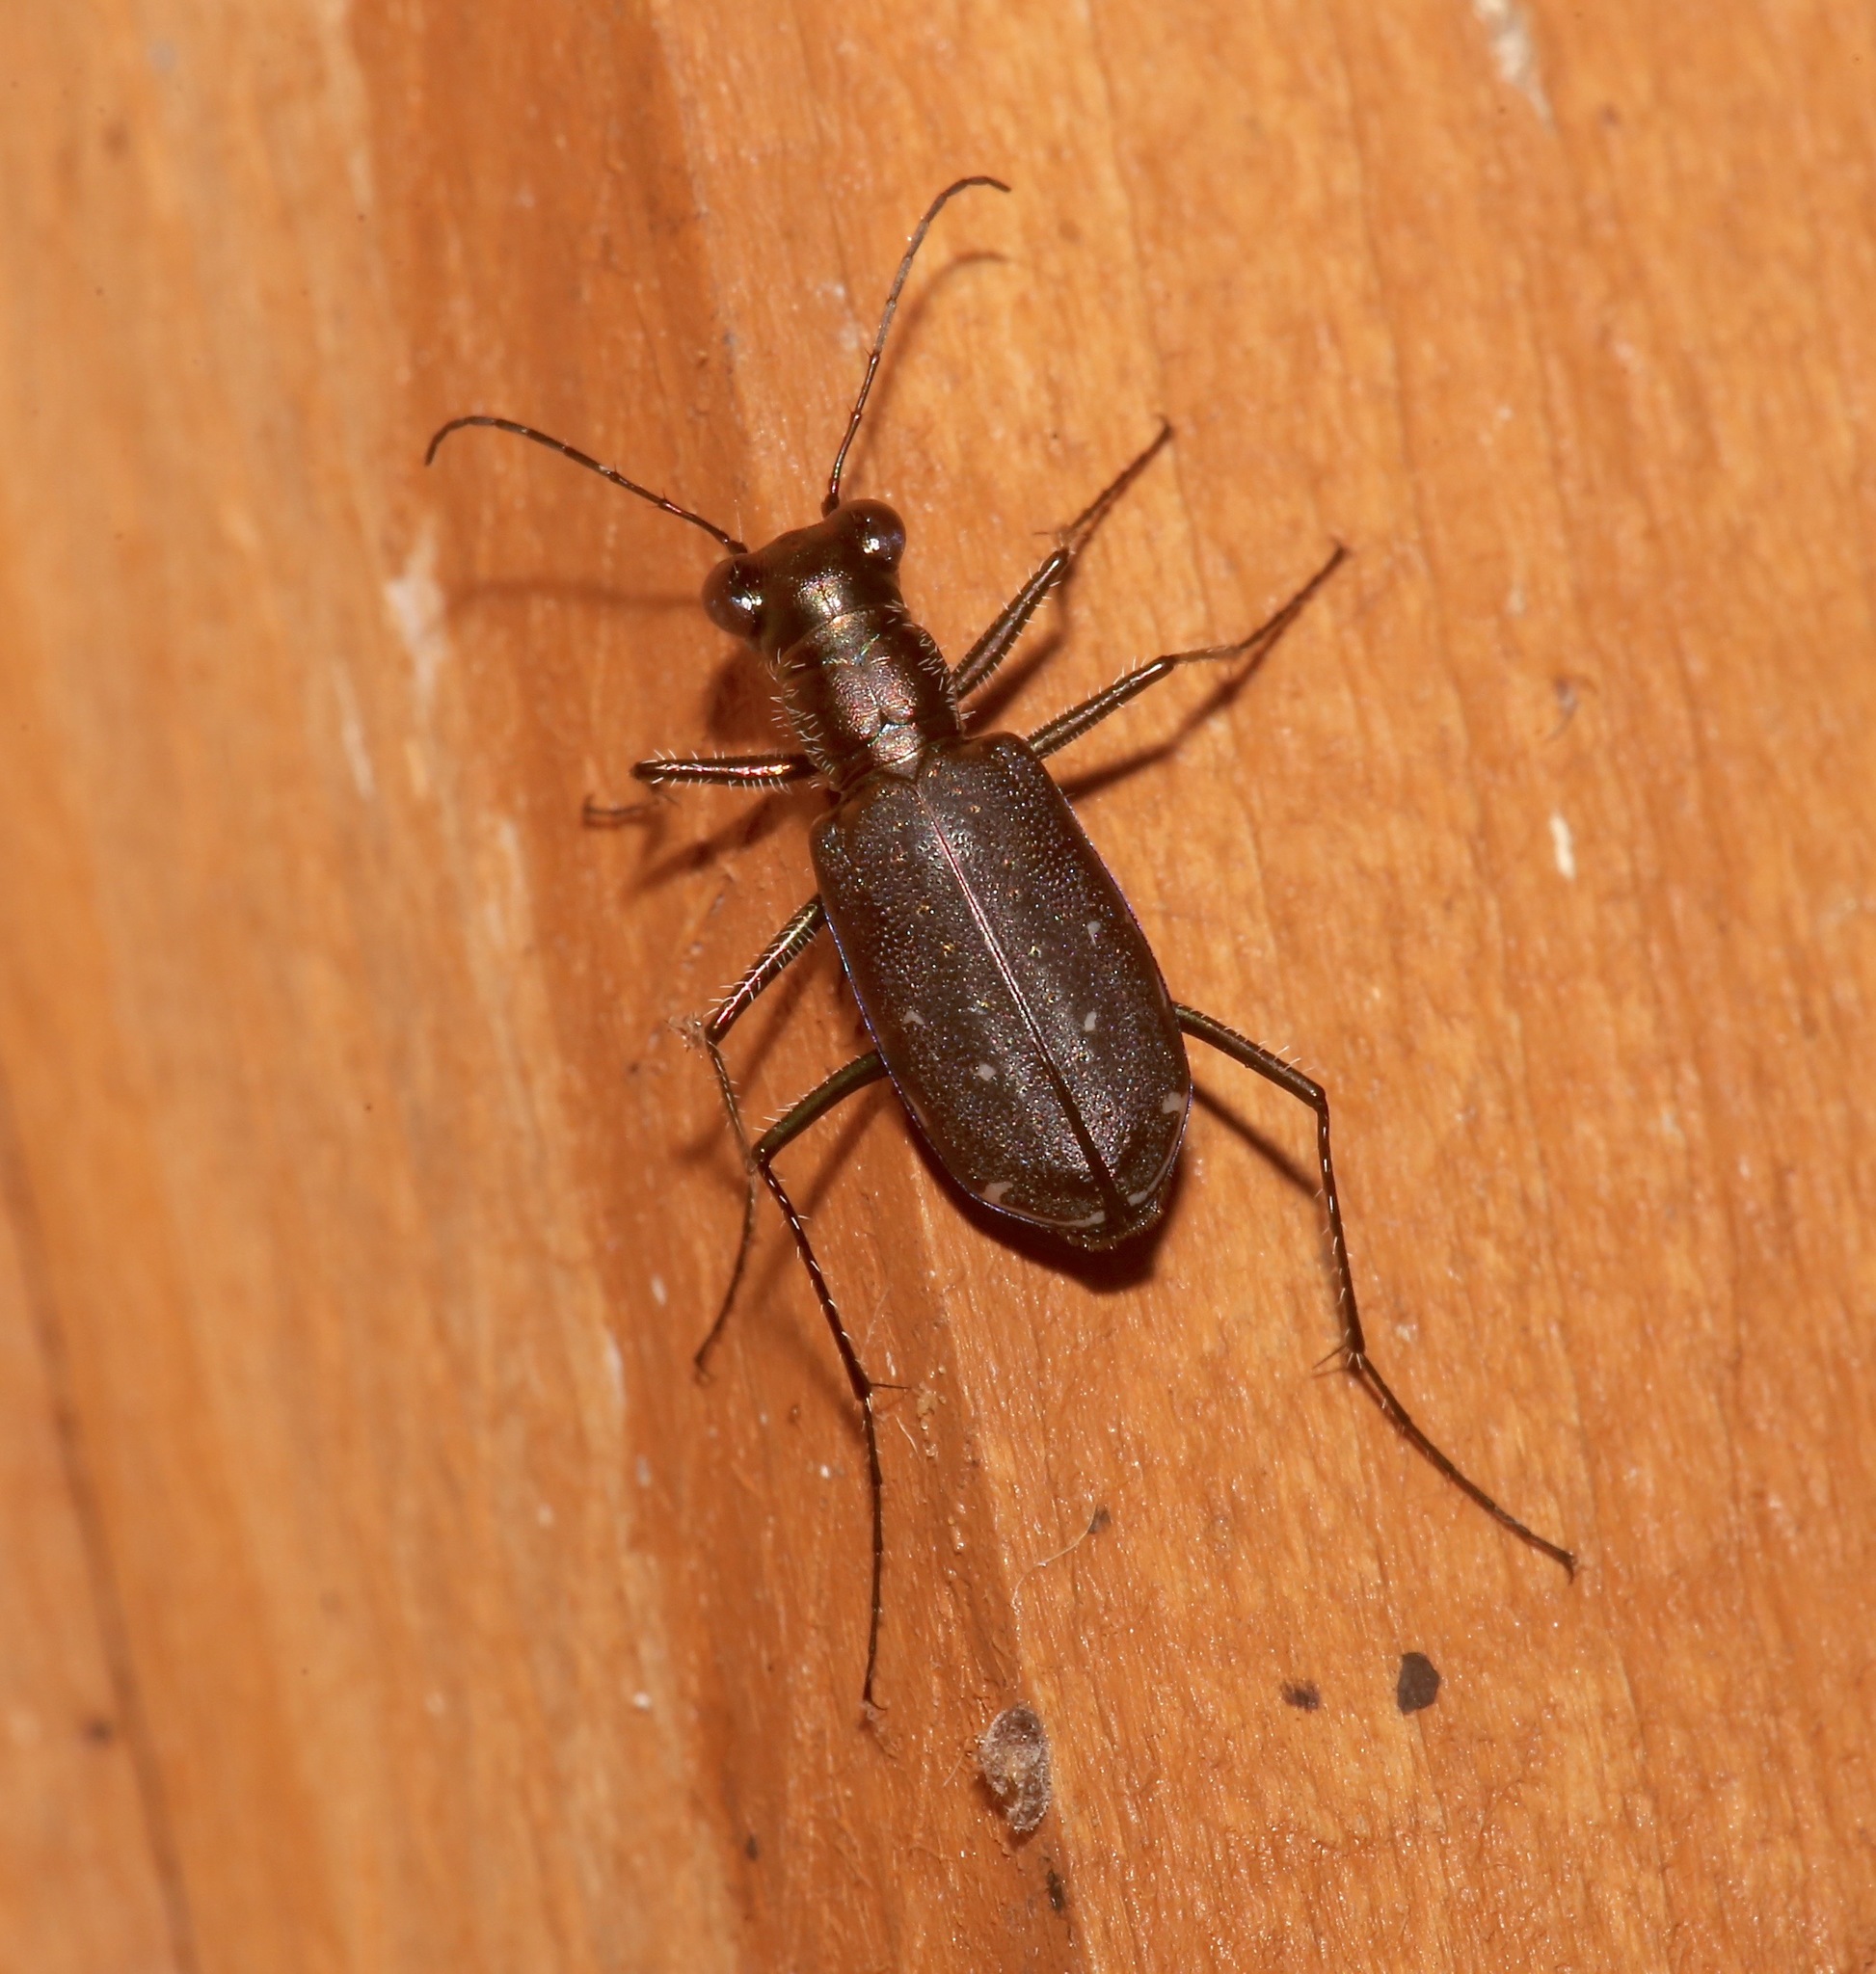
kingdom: Animalia
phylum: Arthropoda
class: Insecta
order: Coleoptera
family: Carabidae
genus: Cicindela
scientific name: Cicindela punctulata
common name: Punctured tiger beetle
